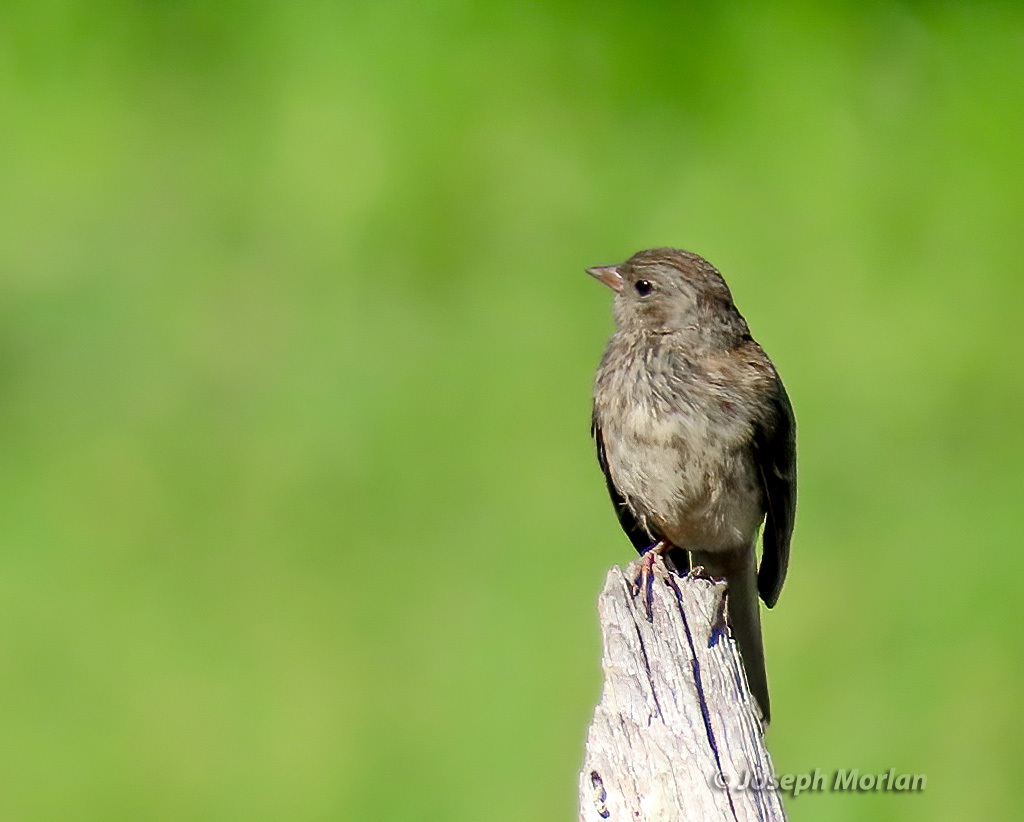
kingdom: Animalia
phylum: Chordata
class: Aves
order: Passeriformes
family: Passerellidae
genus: Junco
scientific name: Junco hyemalis
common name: Dark-eyed junco
